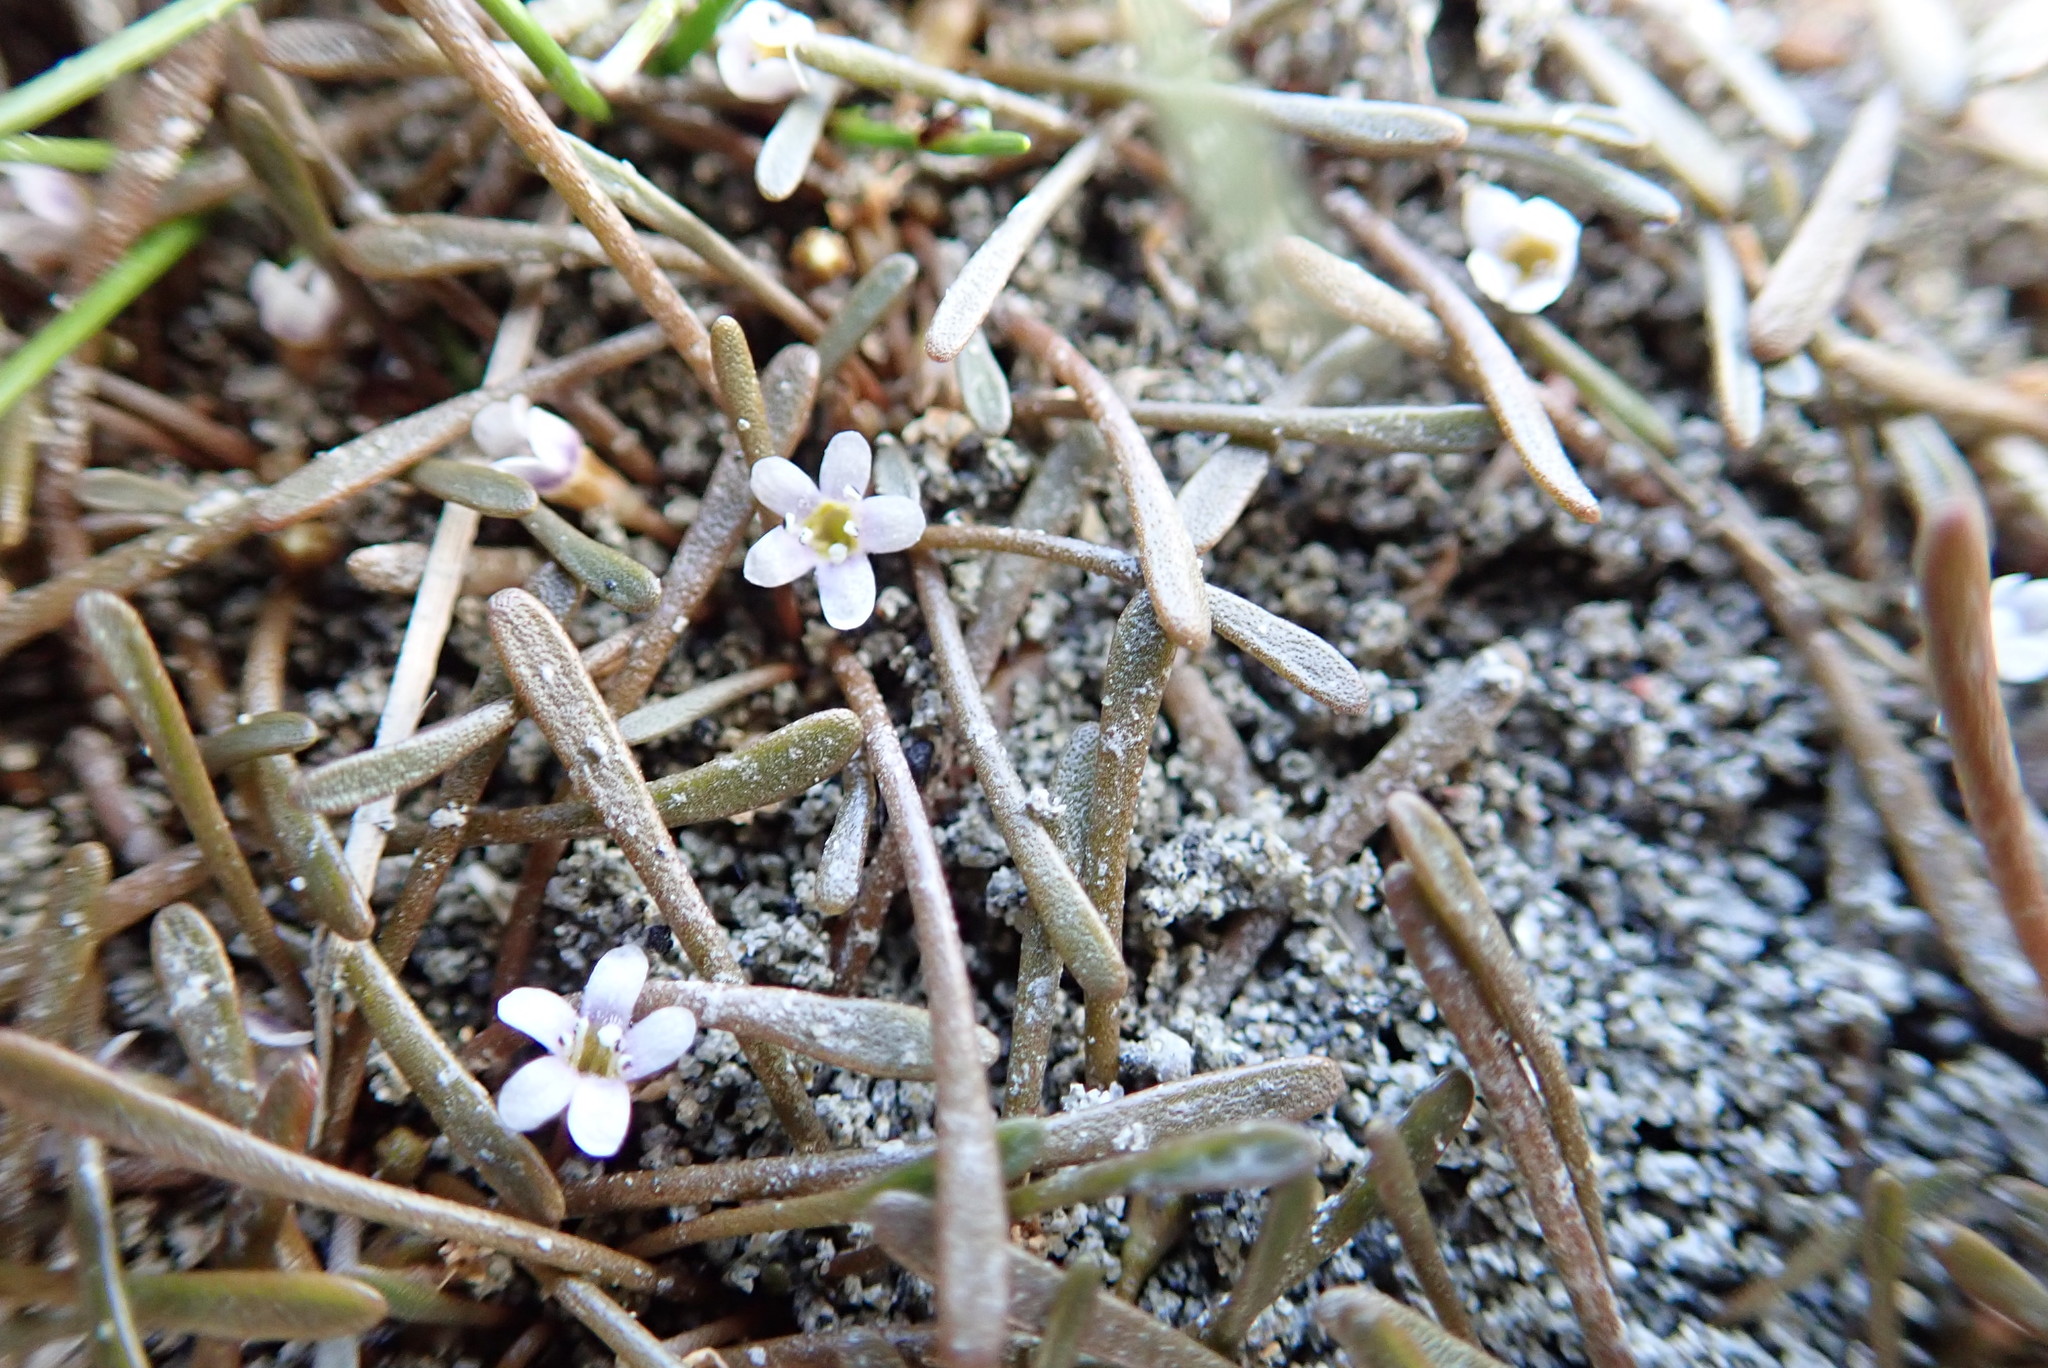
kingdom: Plantae
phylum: Tracheophyta
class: Magnoliopsida
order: Lamiales
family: Scrophulariaceae
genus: Limosella
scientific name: Limosella australis
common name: Welsh mudwort
